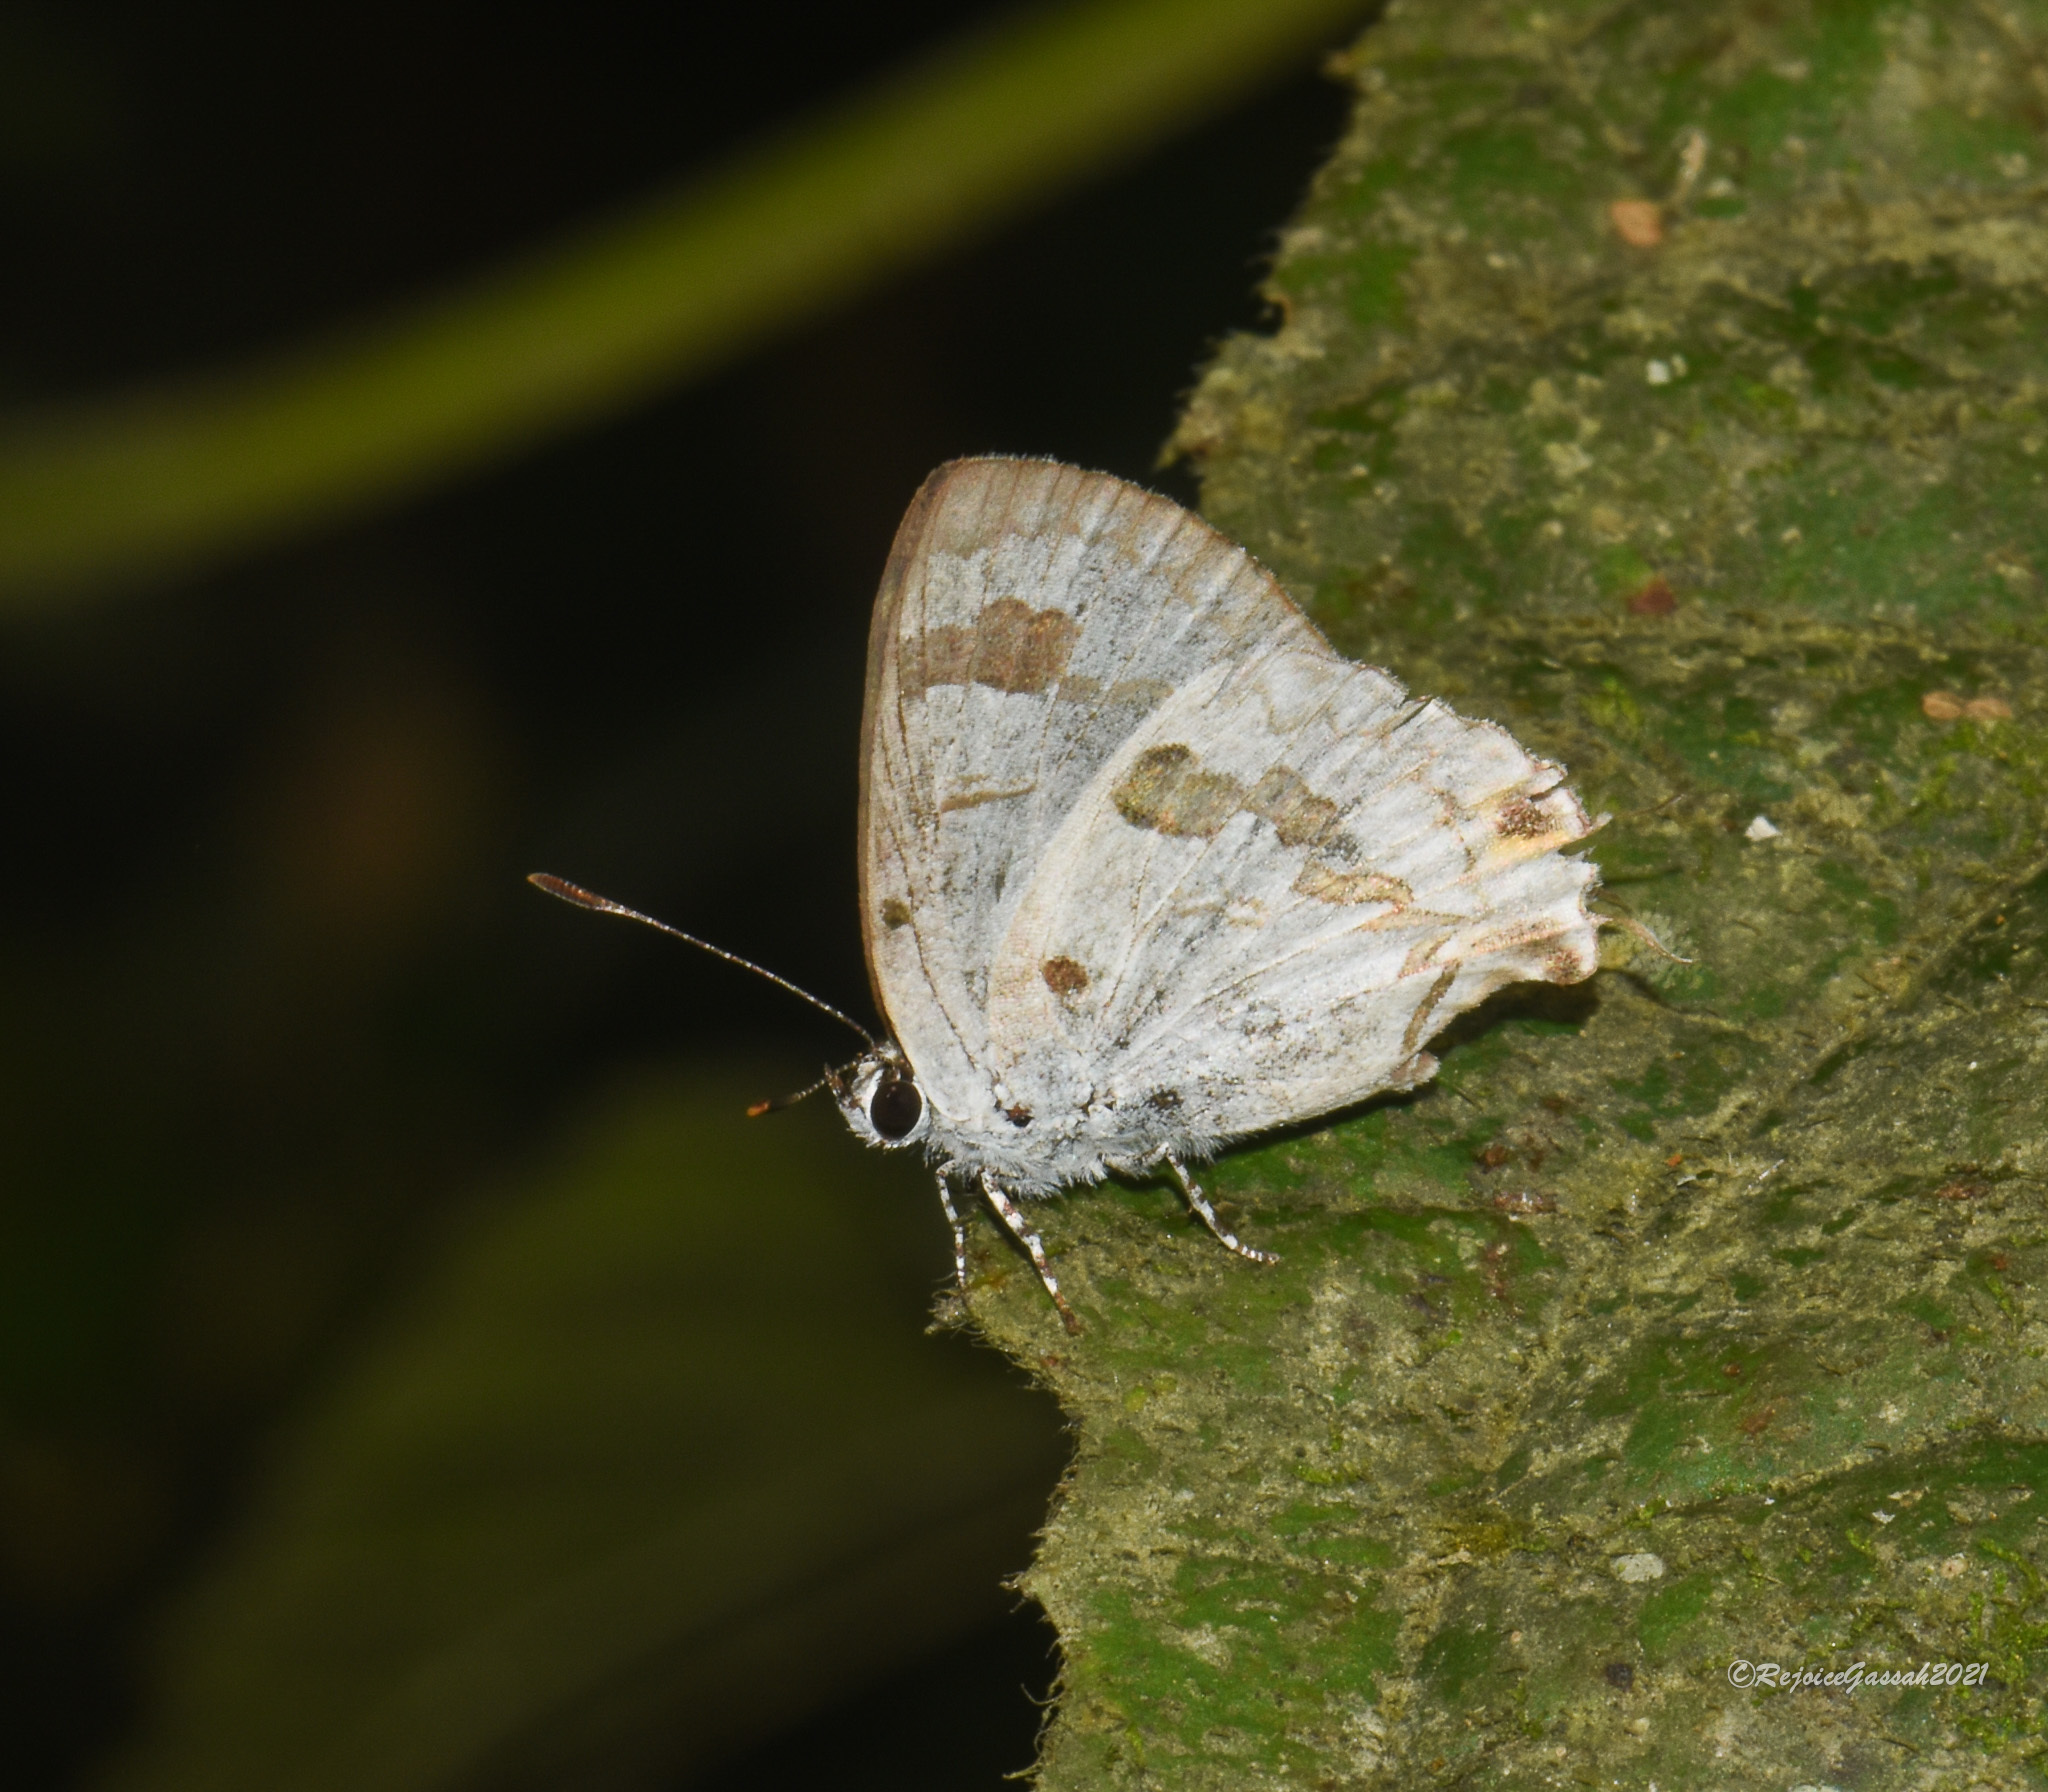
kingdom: Animalia
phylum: Arthropoda
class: Insecta
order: Lepidoptera
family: Lycaenidae
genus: Chliaria
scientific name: Chliaria othona
